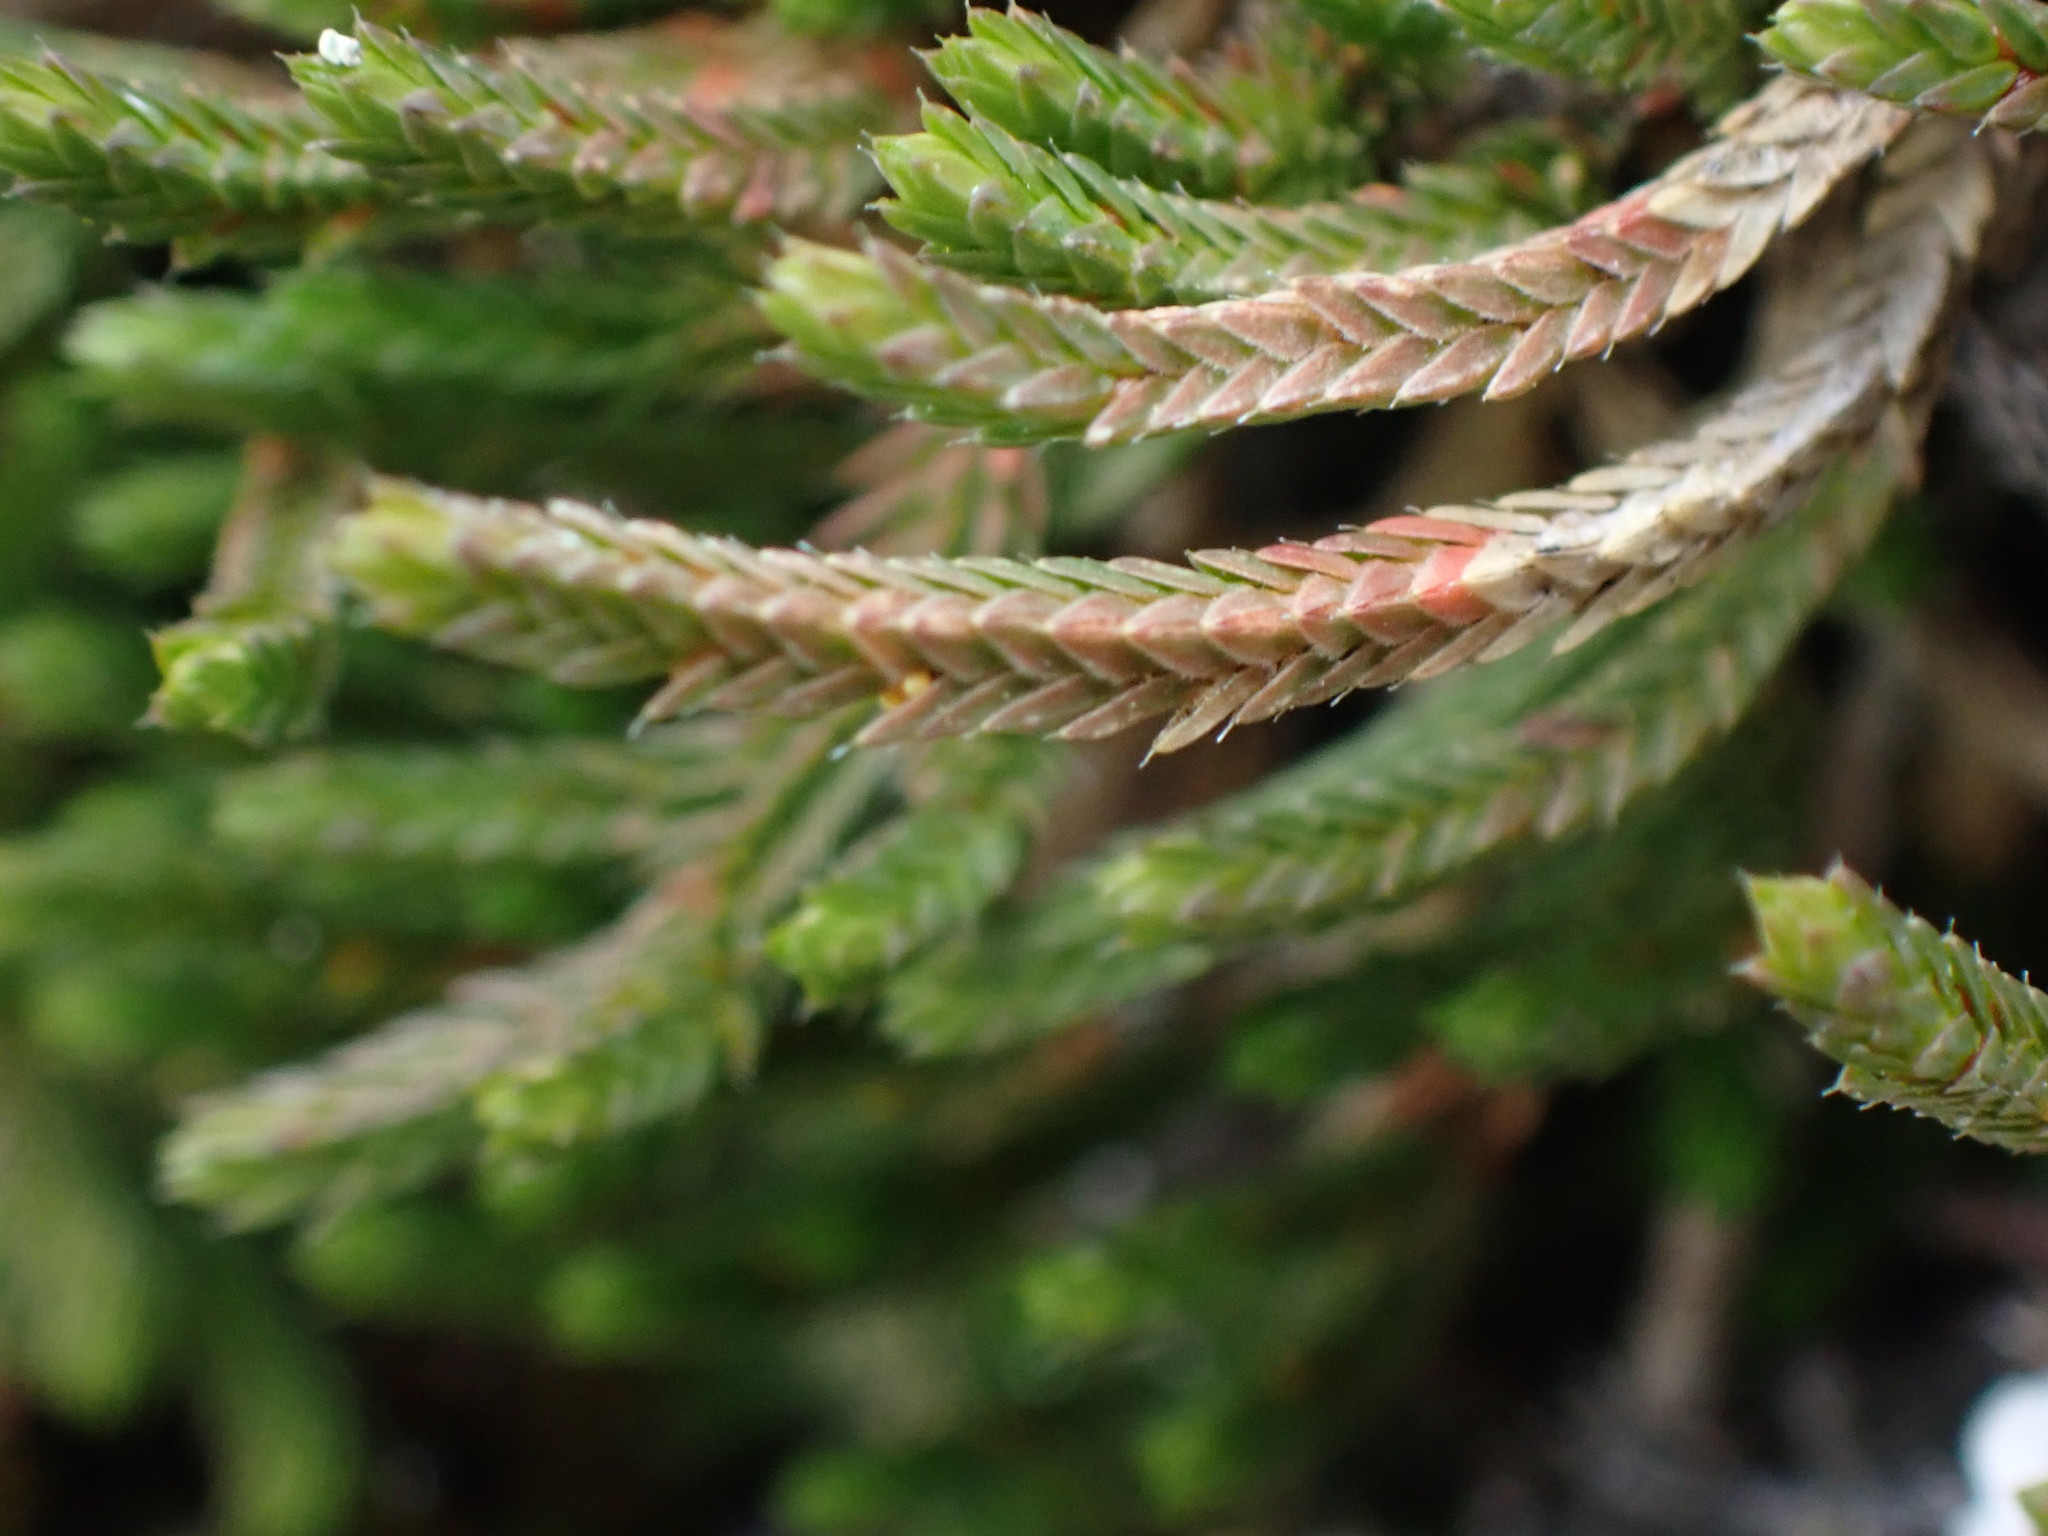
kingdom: Plantae
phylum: Tracheophyta
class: Lycopodiopsida
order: Selaginellales
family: Selaginellaceae
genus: Selaginella
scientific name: Selaginella wallacei
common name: Wallace's selaginella
